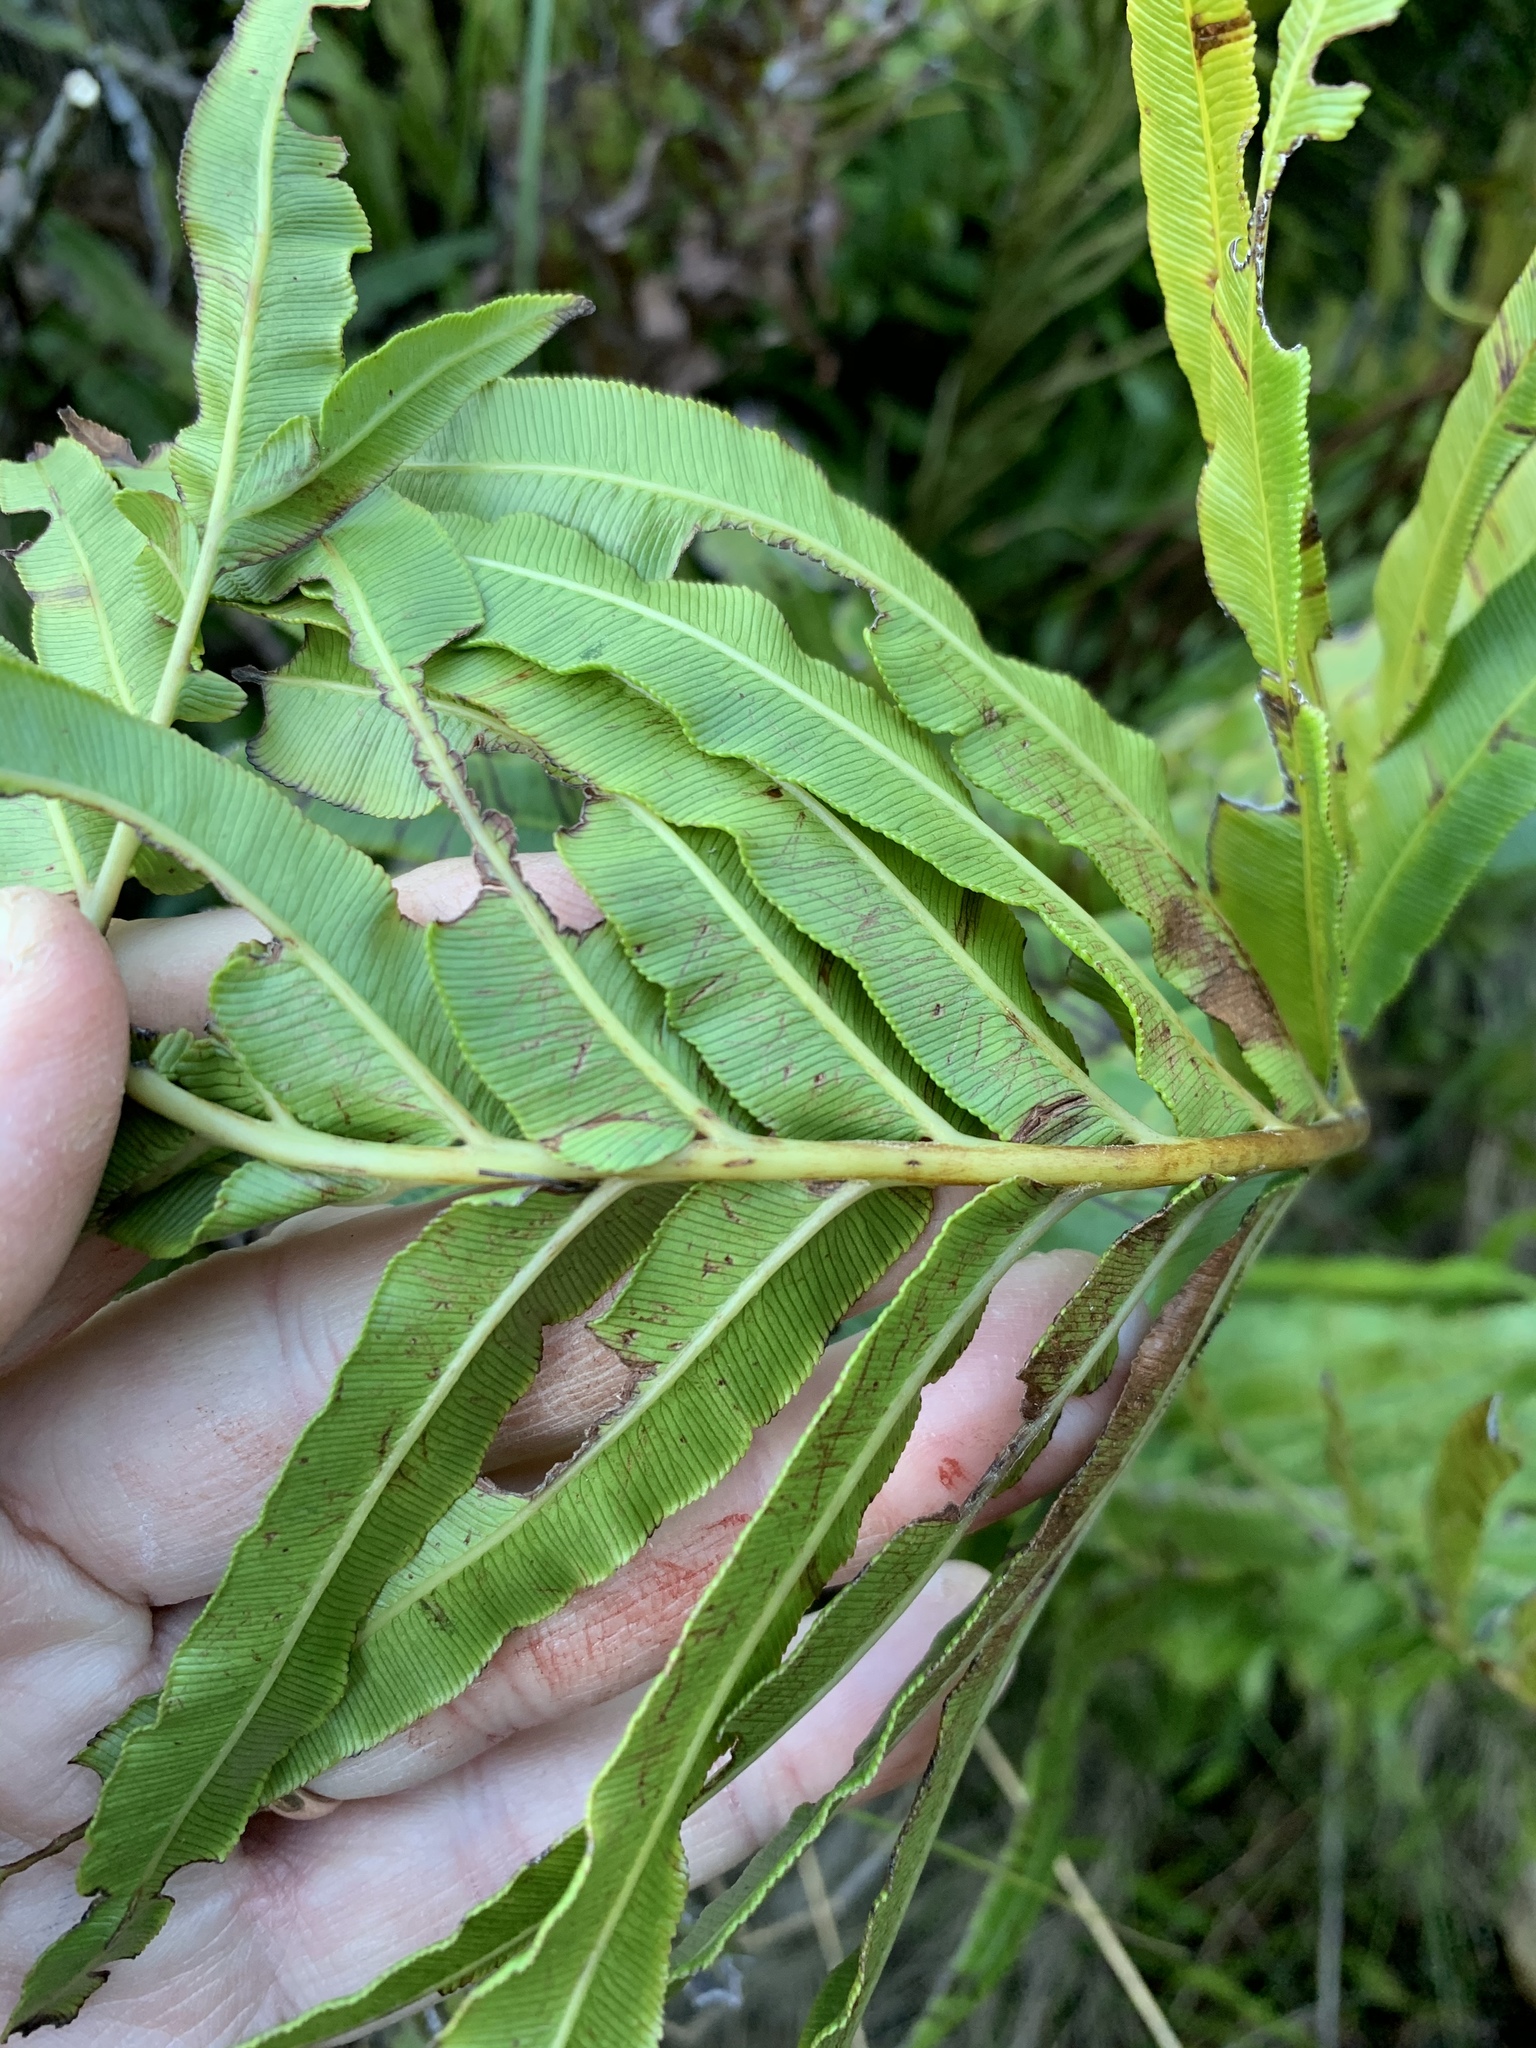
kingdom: Plantae
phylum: Tracheophyta
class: Polypodiopsida
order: Polypodiales
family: Blechnaceae
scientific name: Blechnaceae
